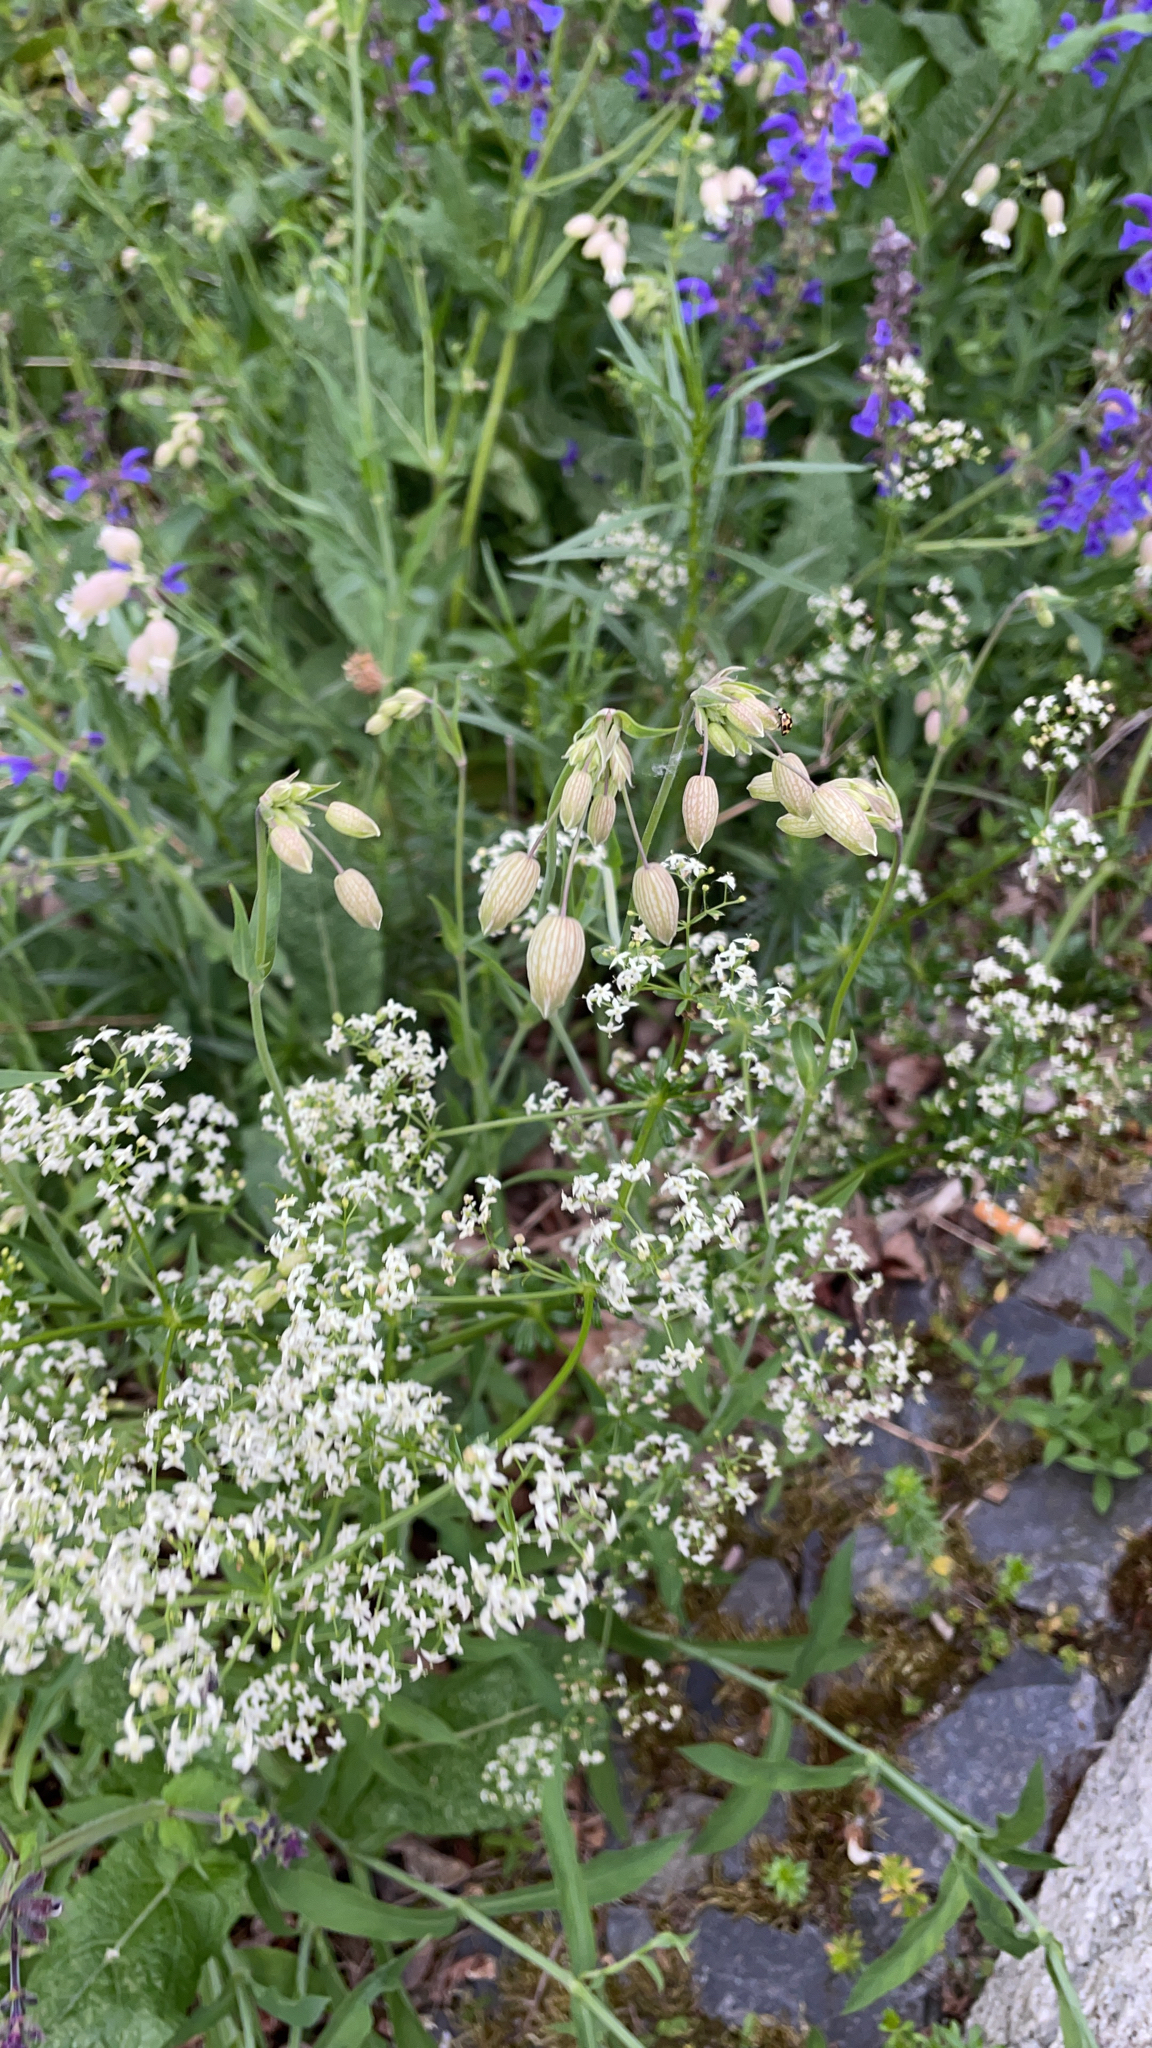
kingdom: Plantae
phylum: Tracheophyta
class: Magnoliopsida
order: Caryophyllales
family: Caryophyllaceae
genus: Silene
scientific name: Silene vulgaris
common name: Bladder campion
